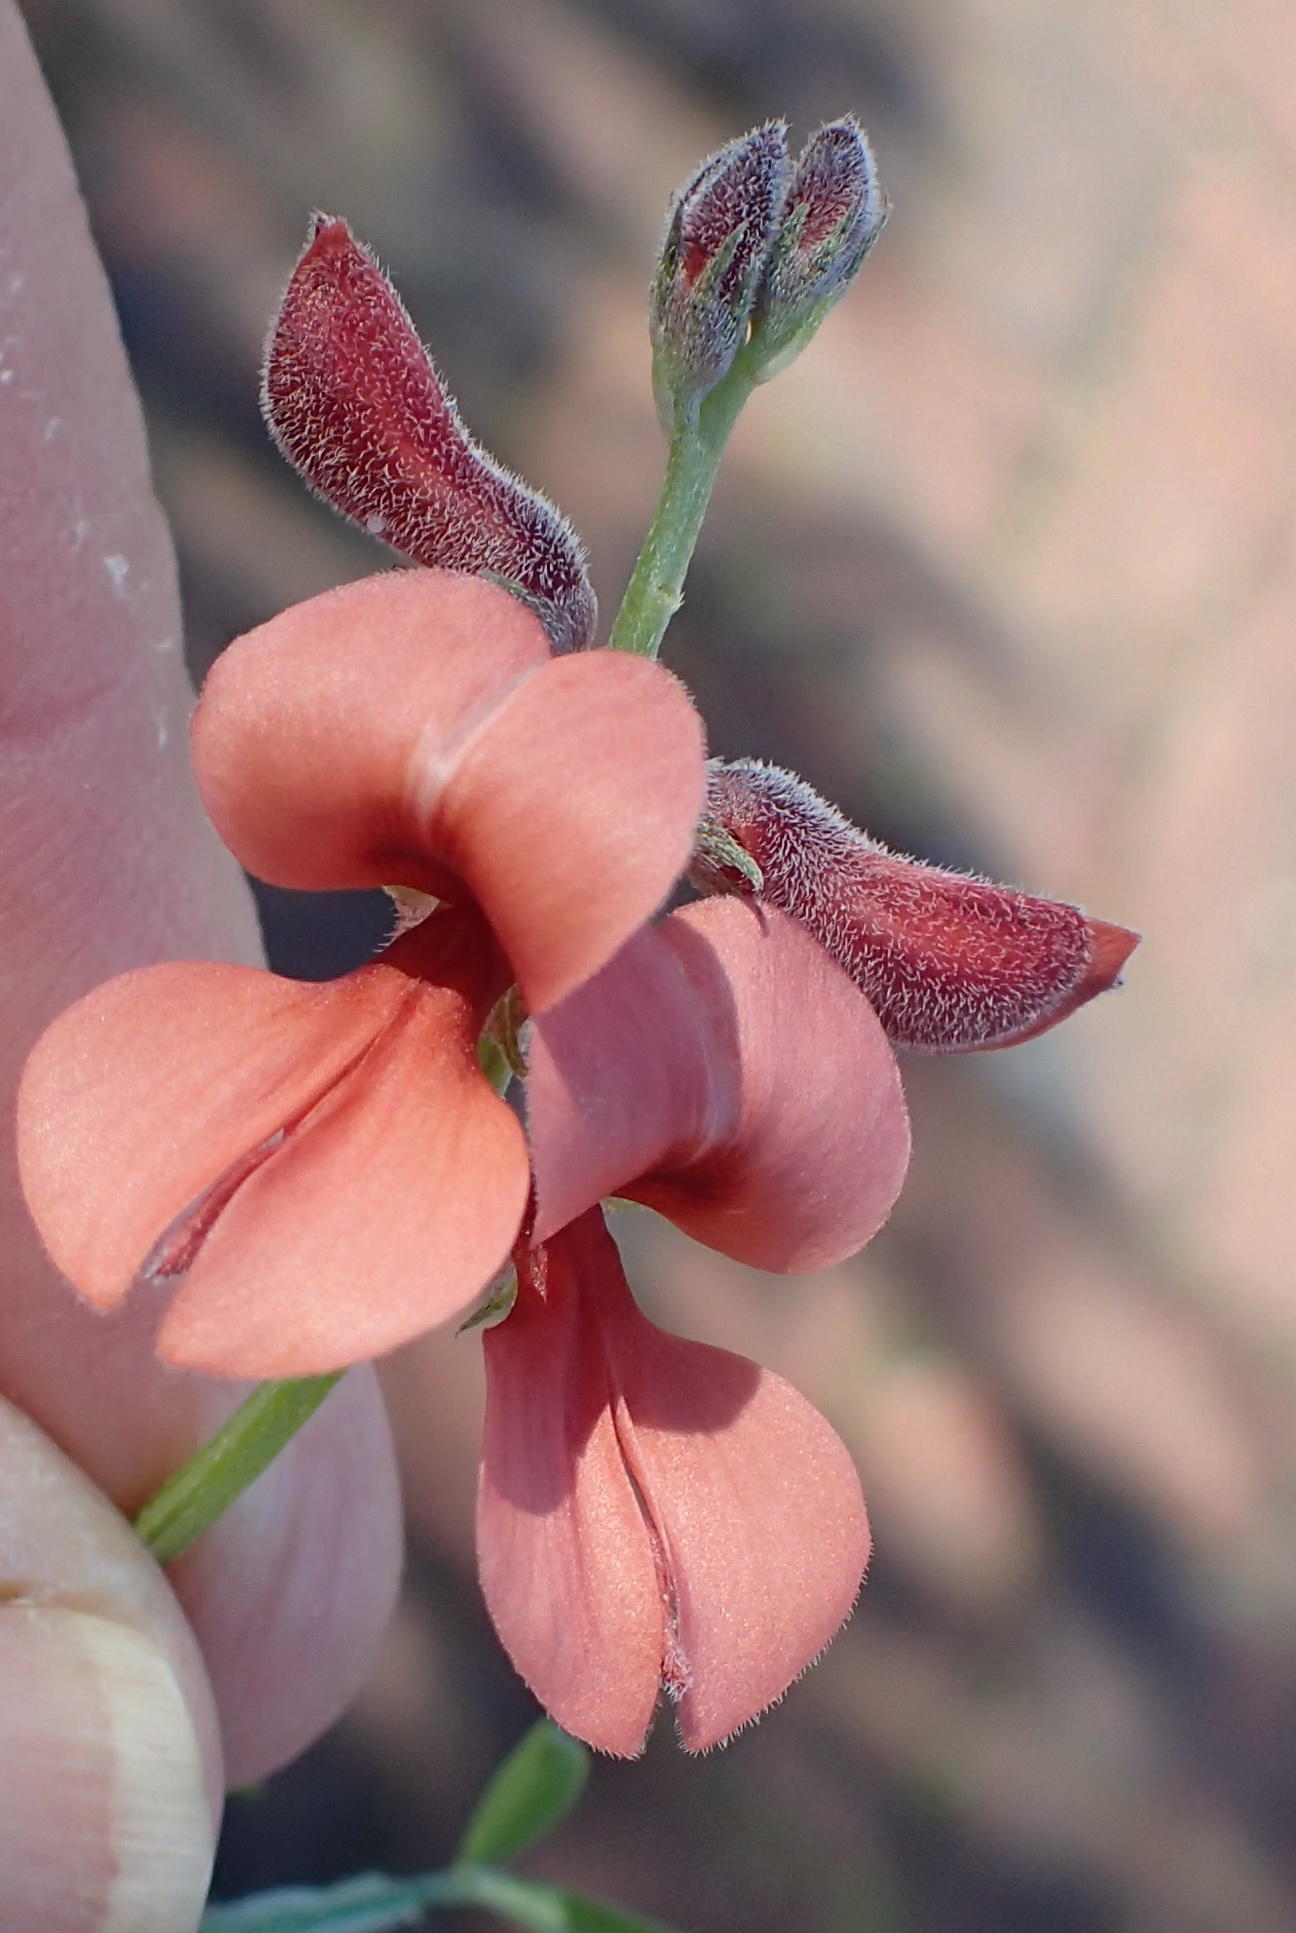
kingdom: Plantae
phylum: Tracheophyta
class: Magnoliopsida
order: Fabales
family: Fabaceae
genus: Indigofera
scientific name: Indigofera candicans
